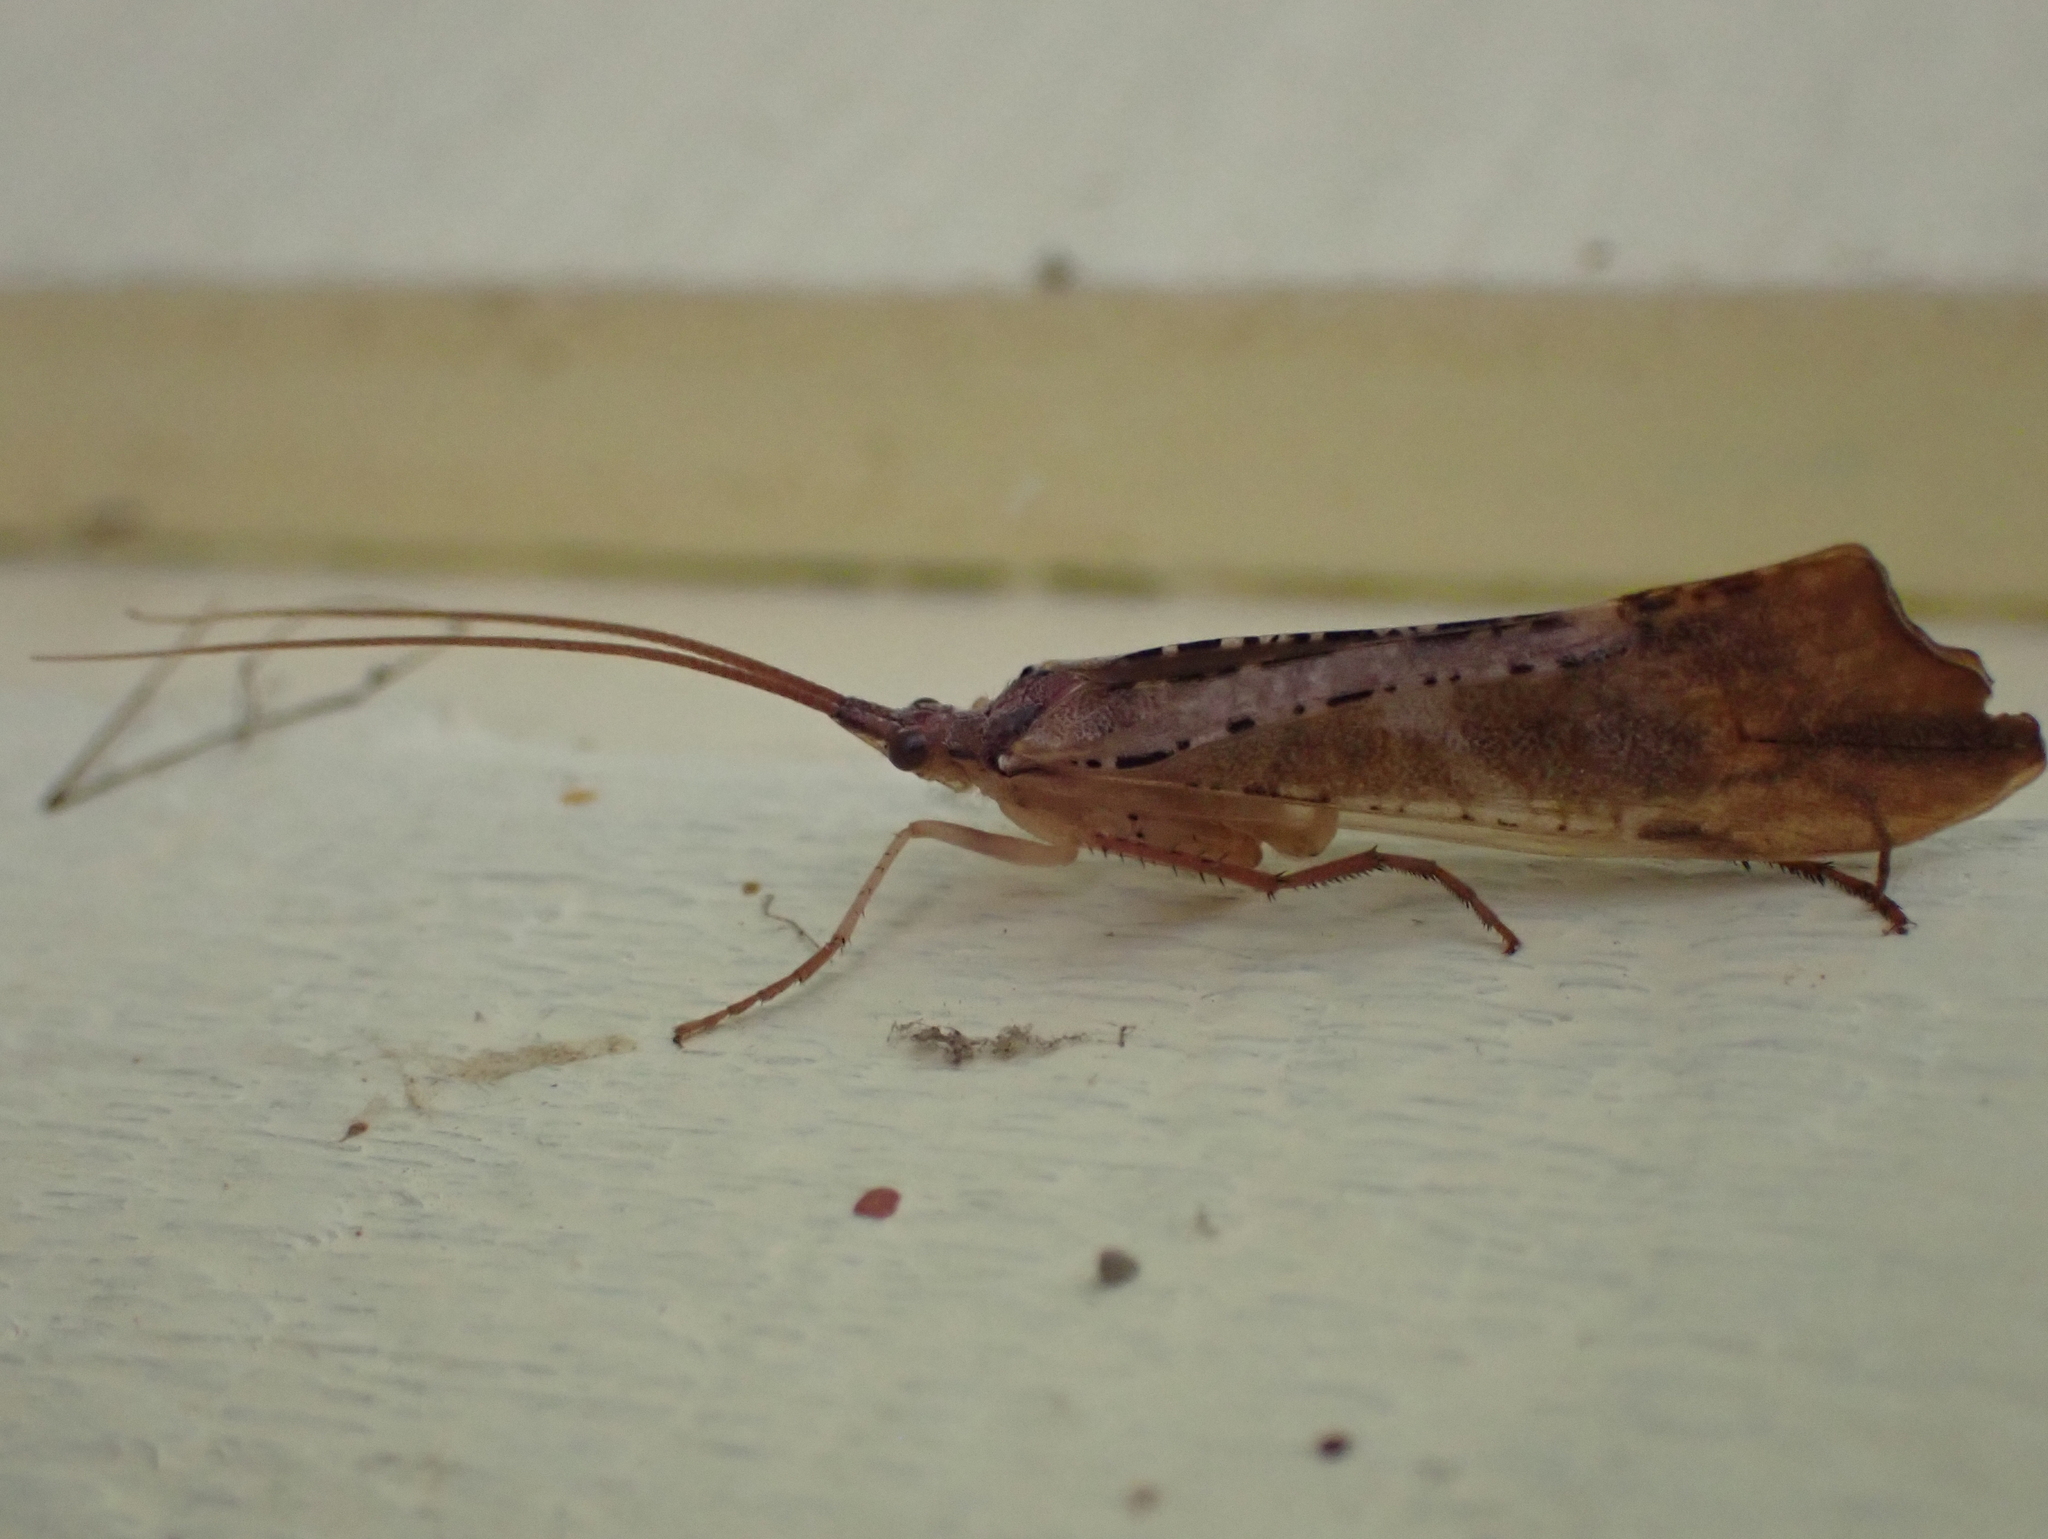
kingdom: Animalia
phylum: Arthropoda
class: Insecta
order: Trichoptera
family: Limnephilidae
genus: Nemotaulius
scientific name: Nemotaulius hostilis
